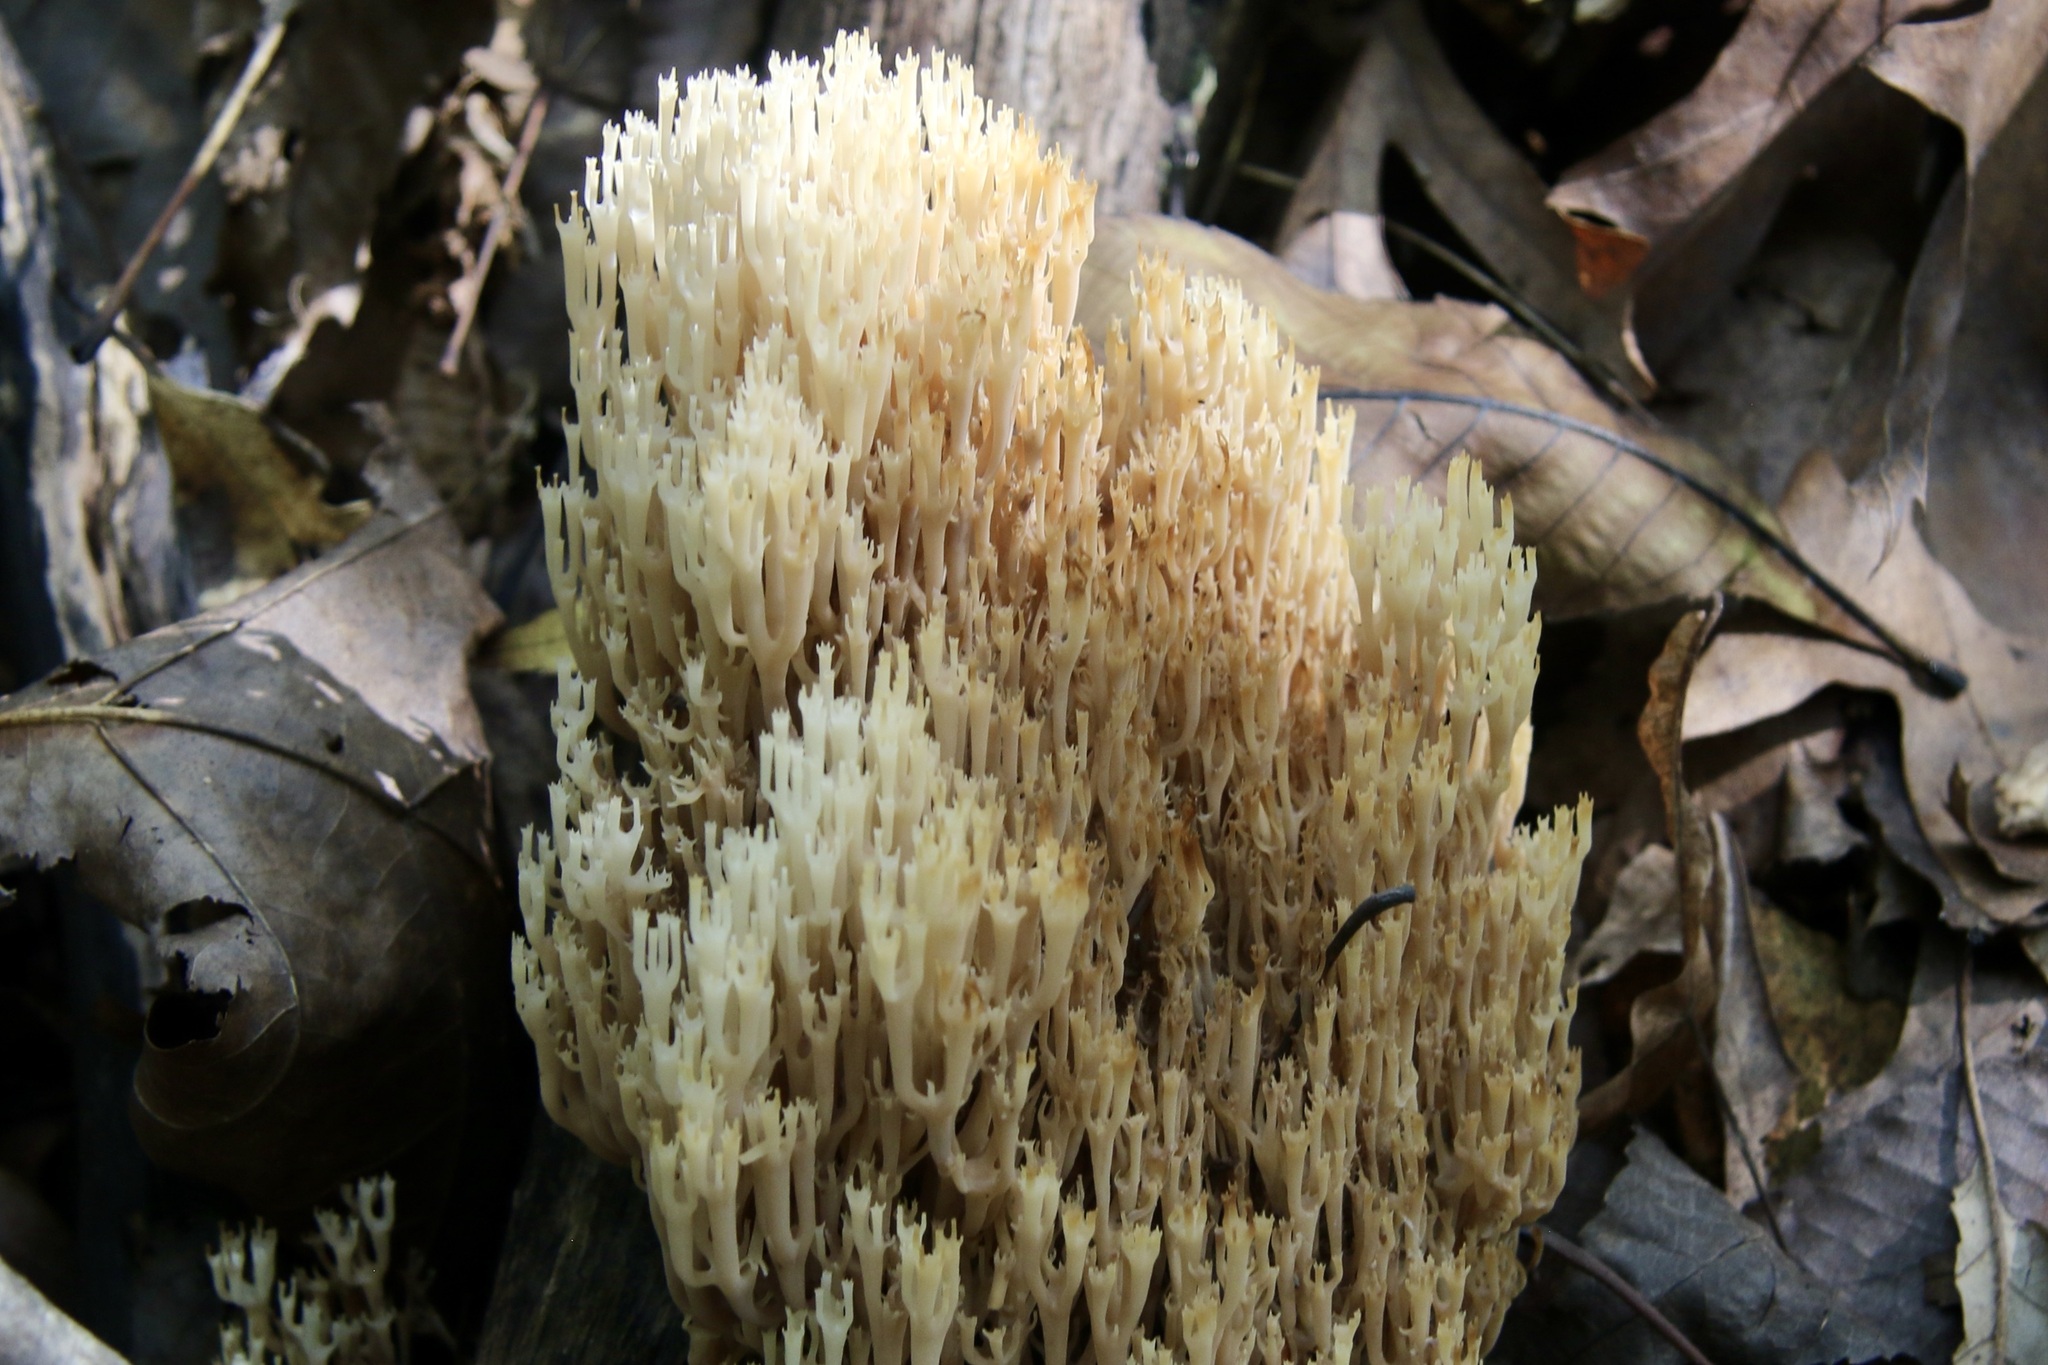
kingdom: Fungi
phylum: Basidiomycota
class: Agaricomycetes
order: Russulales
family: Auriscalpiaceae
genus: Artomyces
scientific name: Artomyces pyxidatus
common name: Crown-tipped coral fungus
